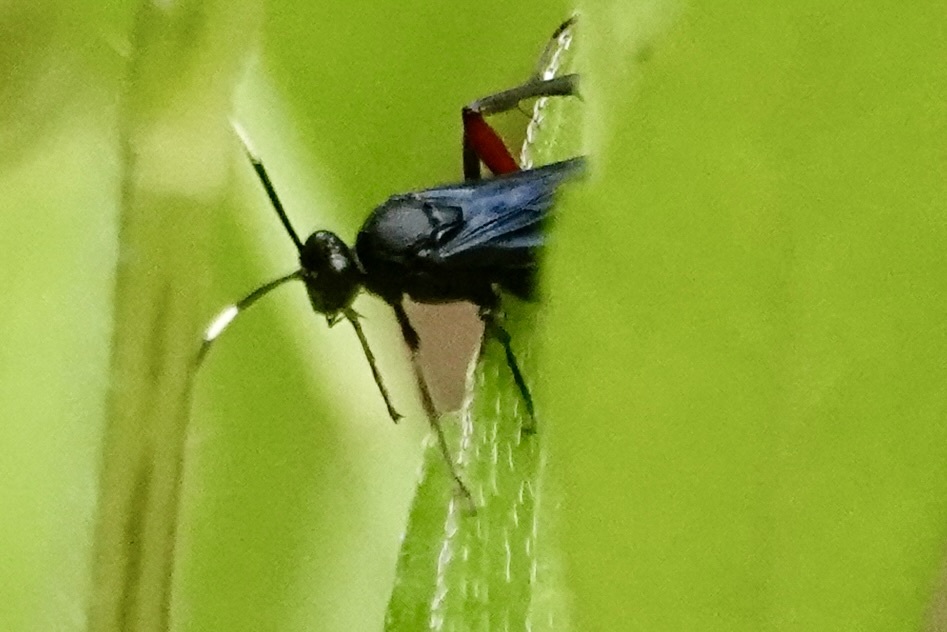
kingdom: Animalia
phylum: Arthropoda
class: Insecta
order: Hymenoptera
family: Ichneumonidae
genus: Limonethe
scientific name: Limonethe maurator
